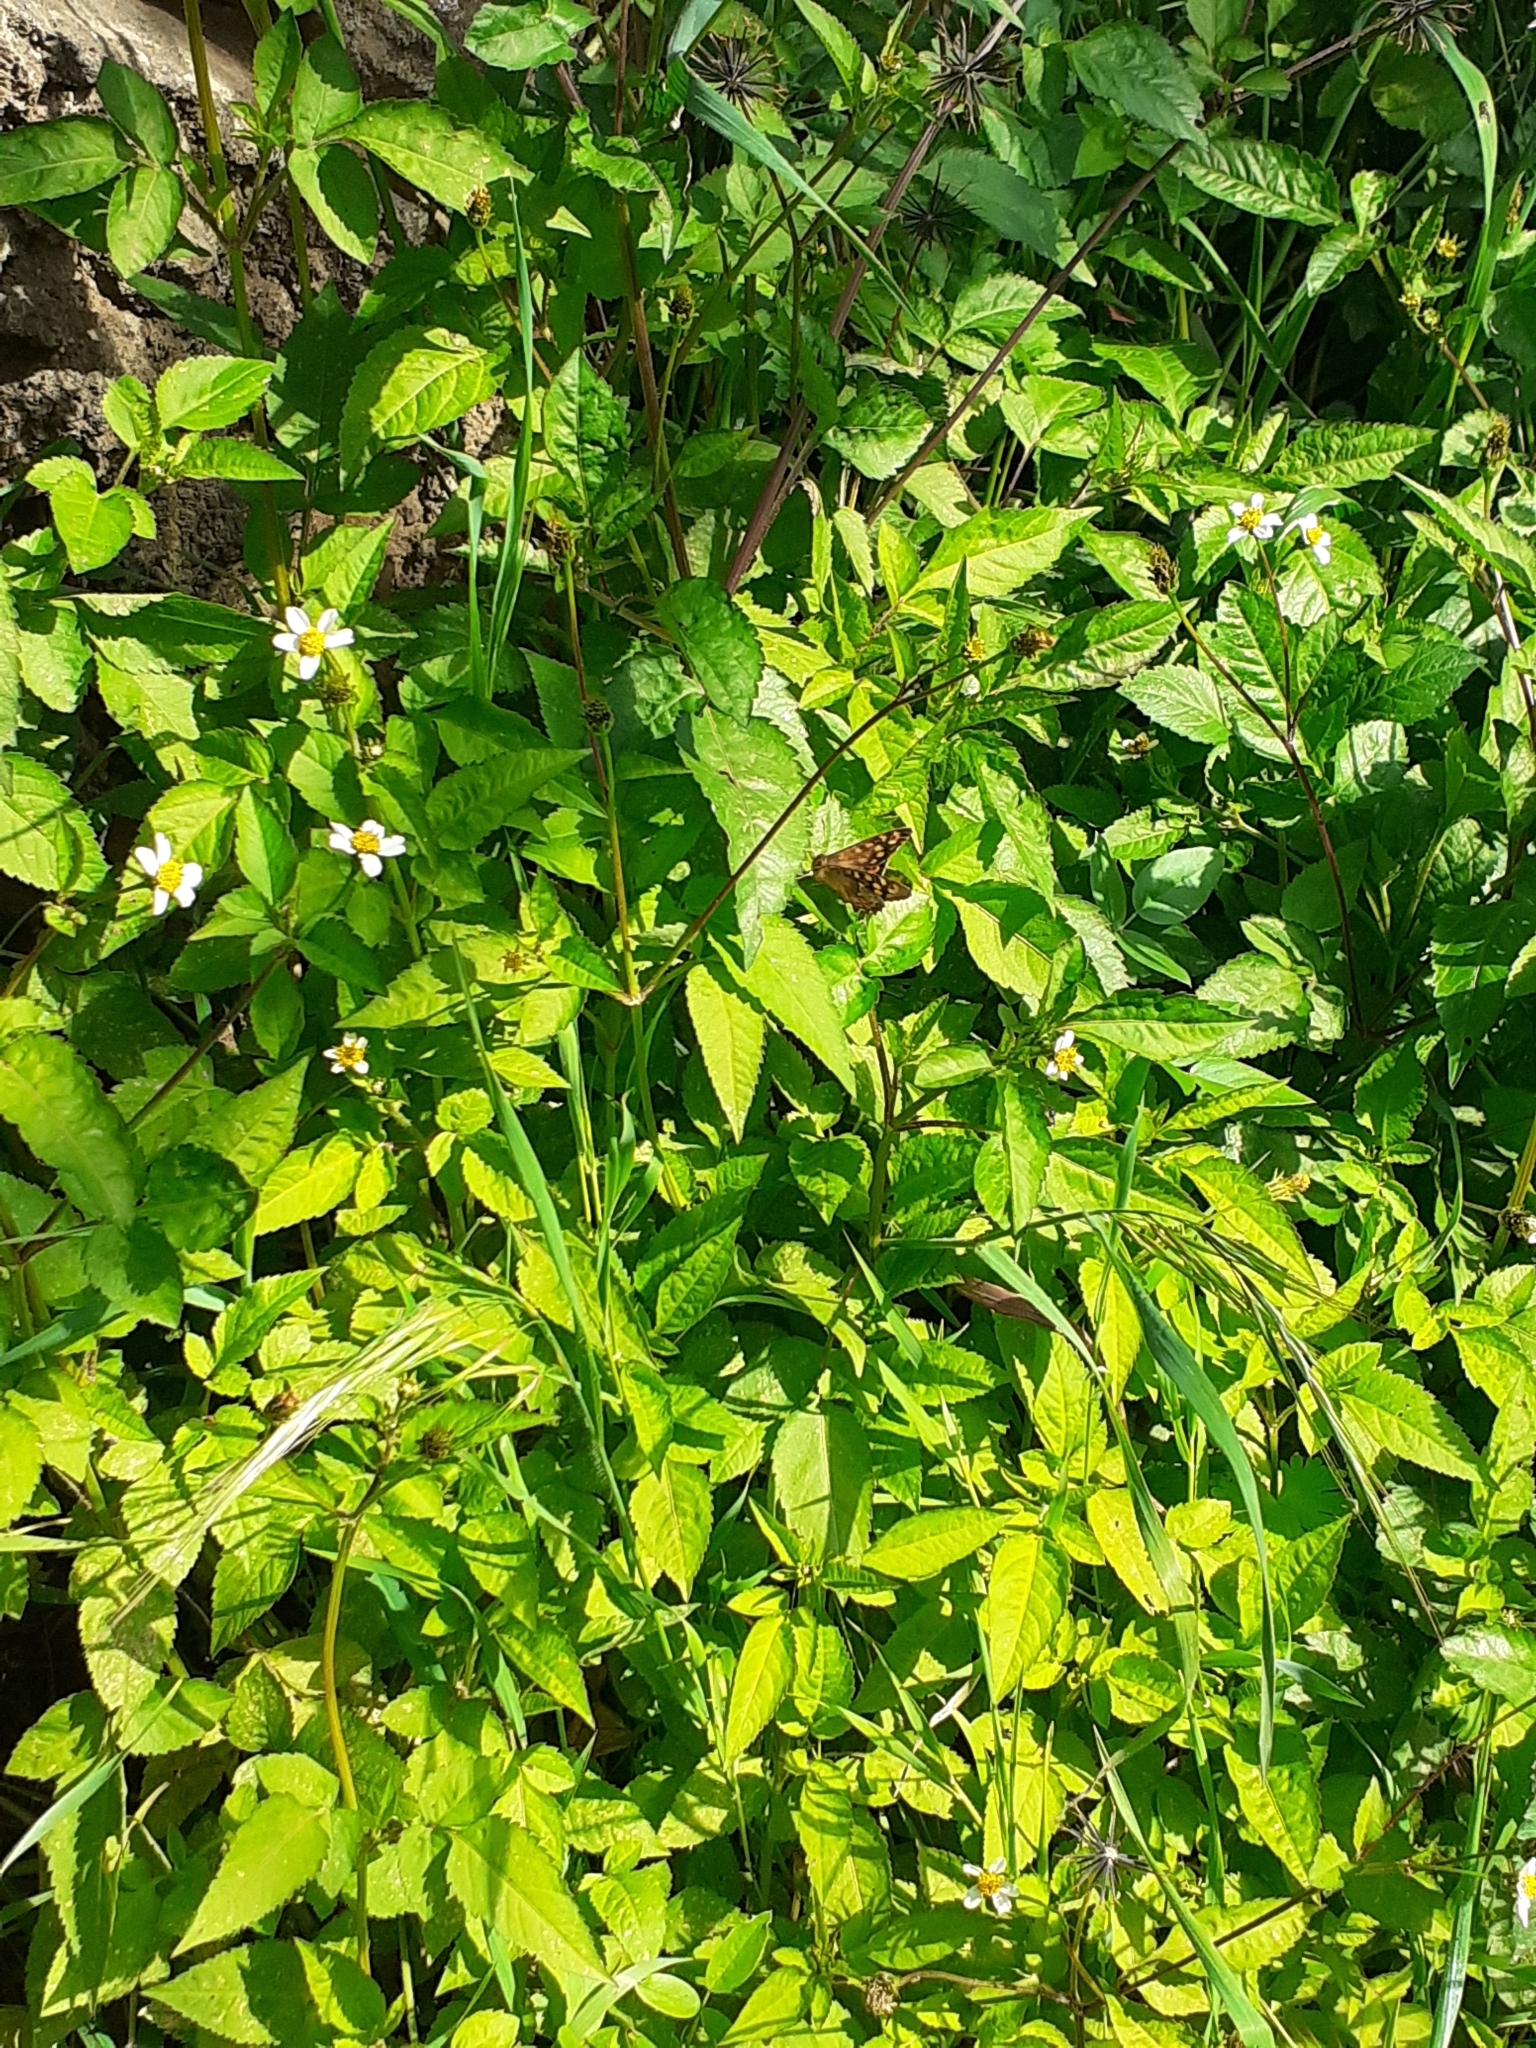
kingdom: Animalia
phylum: Arthropoda
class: Insecta
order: Lepidoptera
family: Nymphalidae
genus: Pararge
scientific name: Pararge aegeria
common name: Speckled wood
